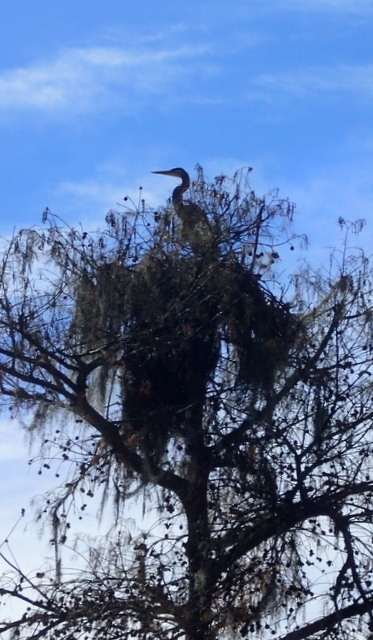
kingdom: Animalia
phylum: Chordata
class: Aves
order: Pelecaniformes
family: Ardeidae
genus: Ardea
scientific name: Ardea herodias
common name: Great blue heron
